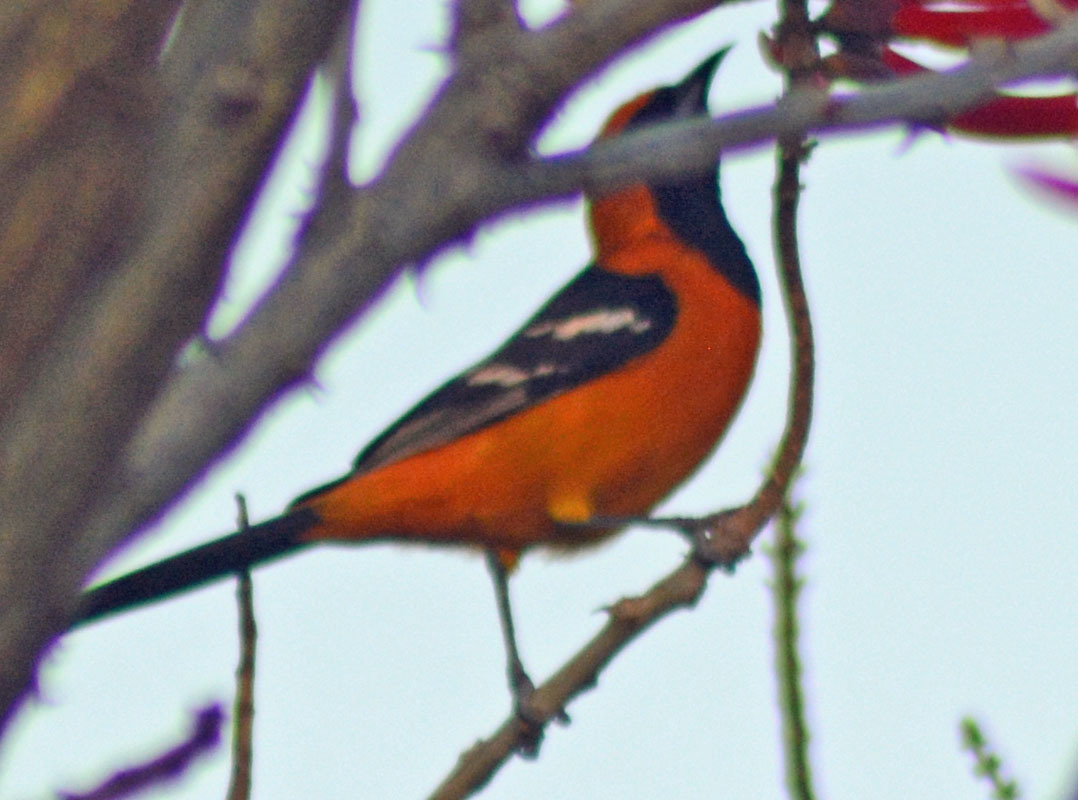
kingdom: Animalia
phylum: Chordata
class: Aves
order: Passeriformes
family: Icteridae
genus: Icterus
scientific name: Icterus cucullatus
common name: Hooded oriole
